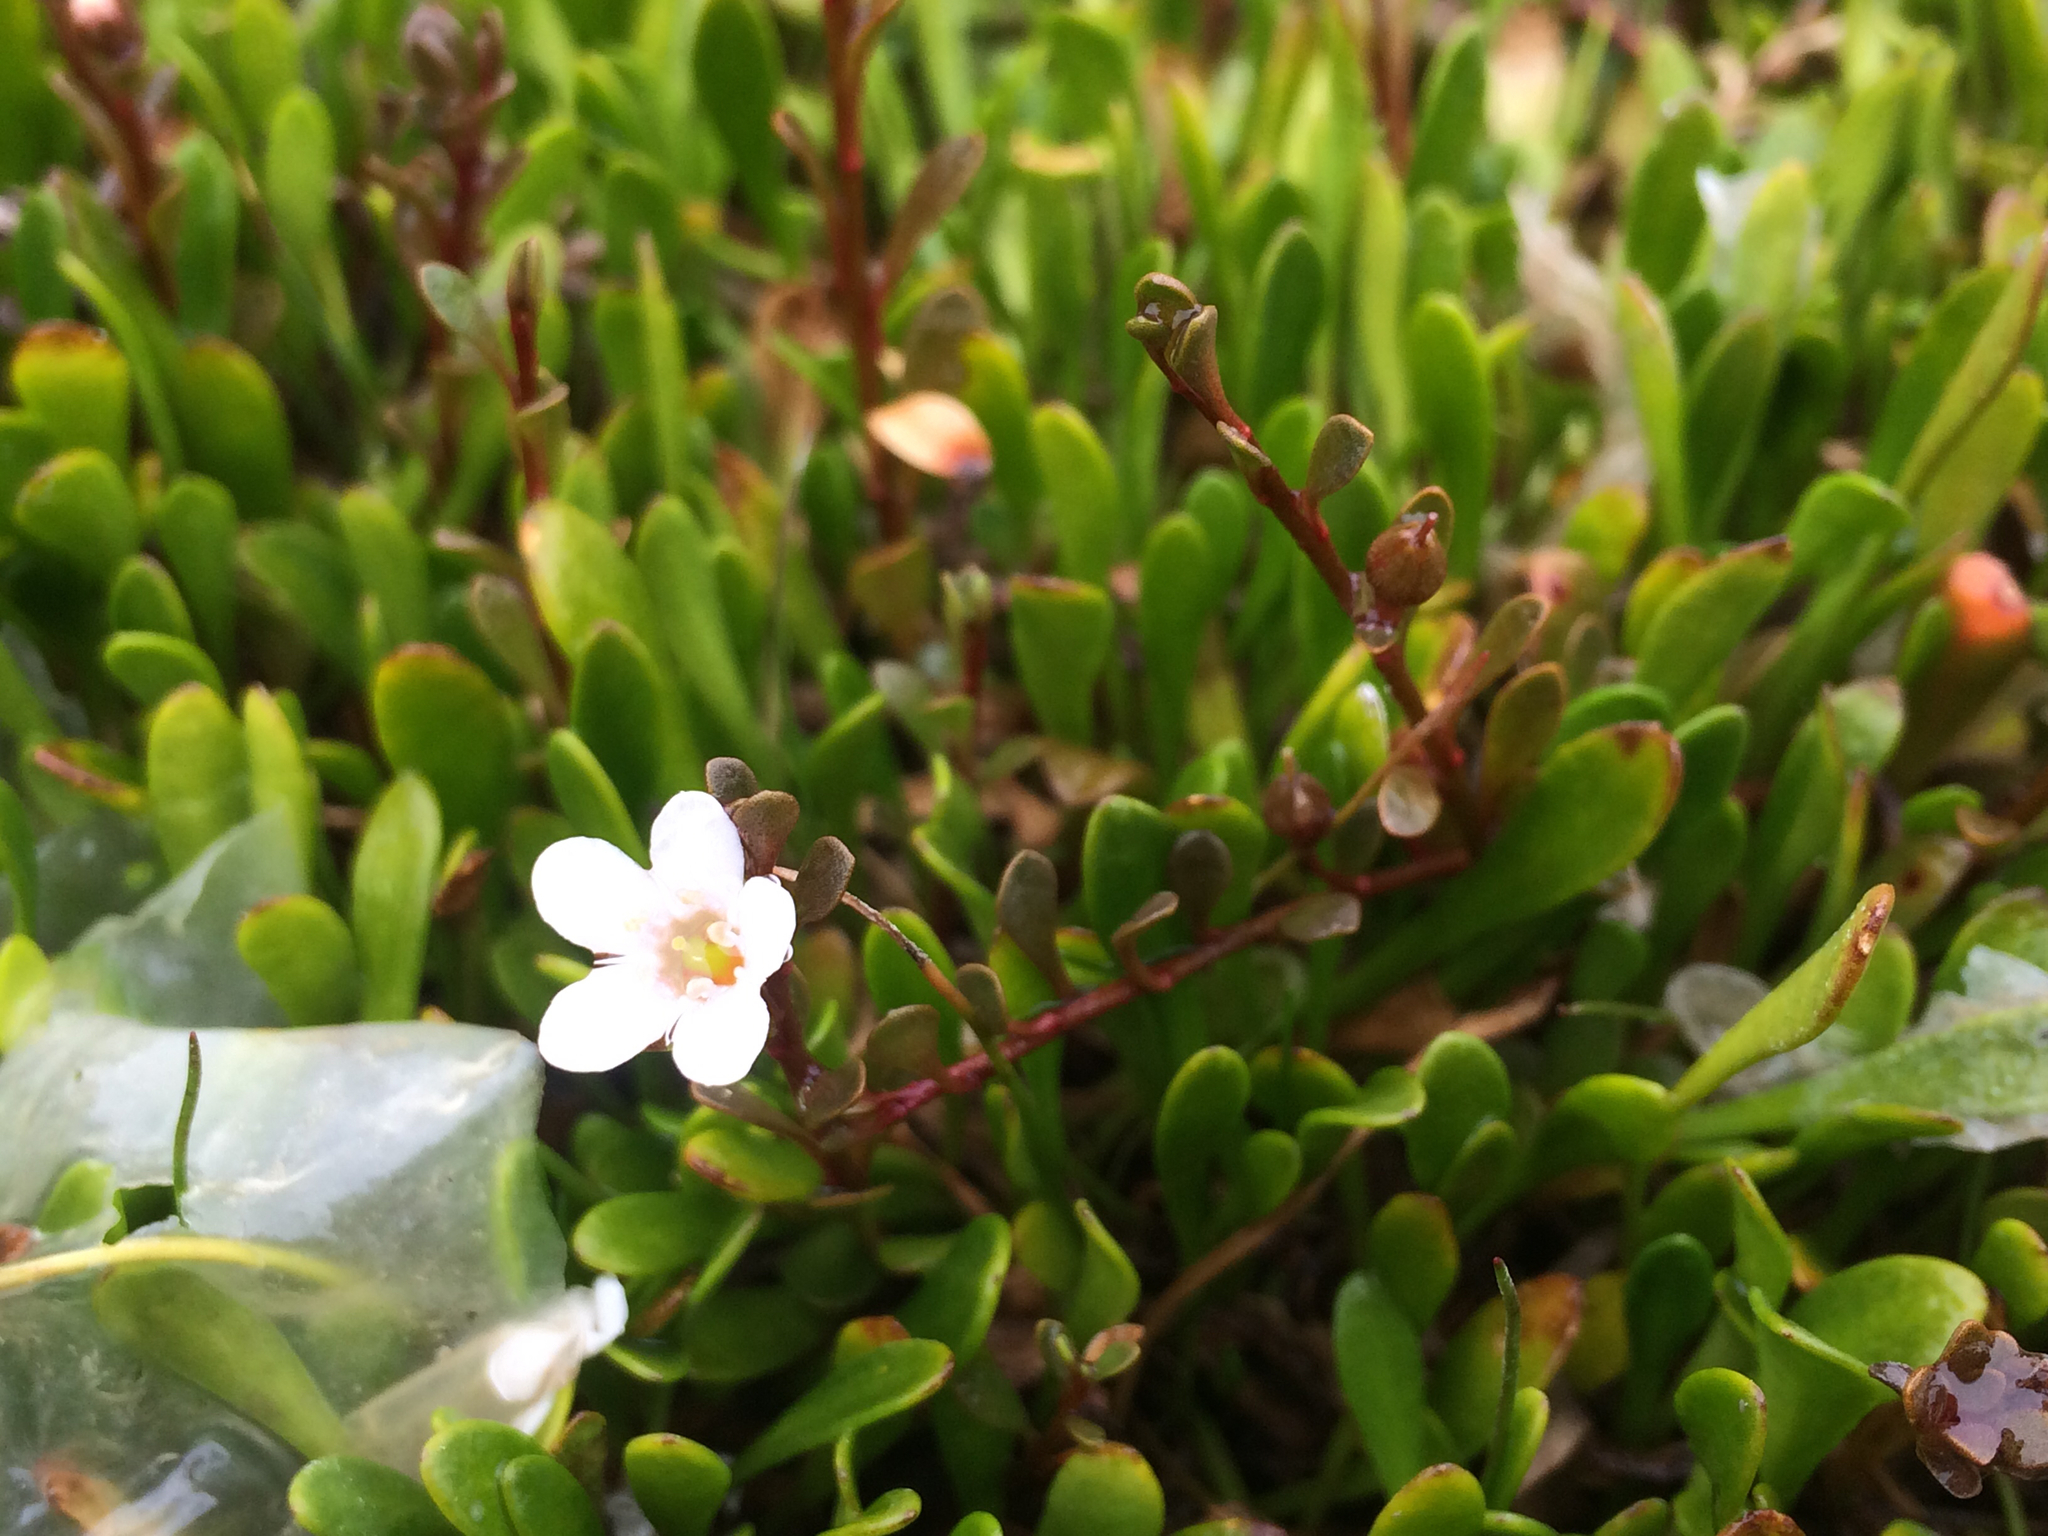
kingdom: Plantae
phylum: Tracheophyta
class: Magnoliopsida
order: Ericales
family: Primulaceae
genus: Samolus
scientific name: Samolus repens
